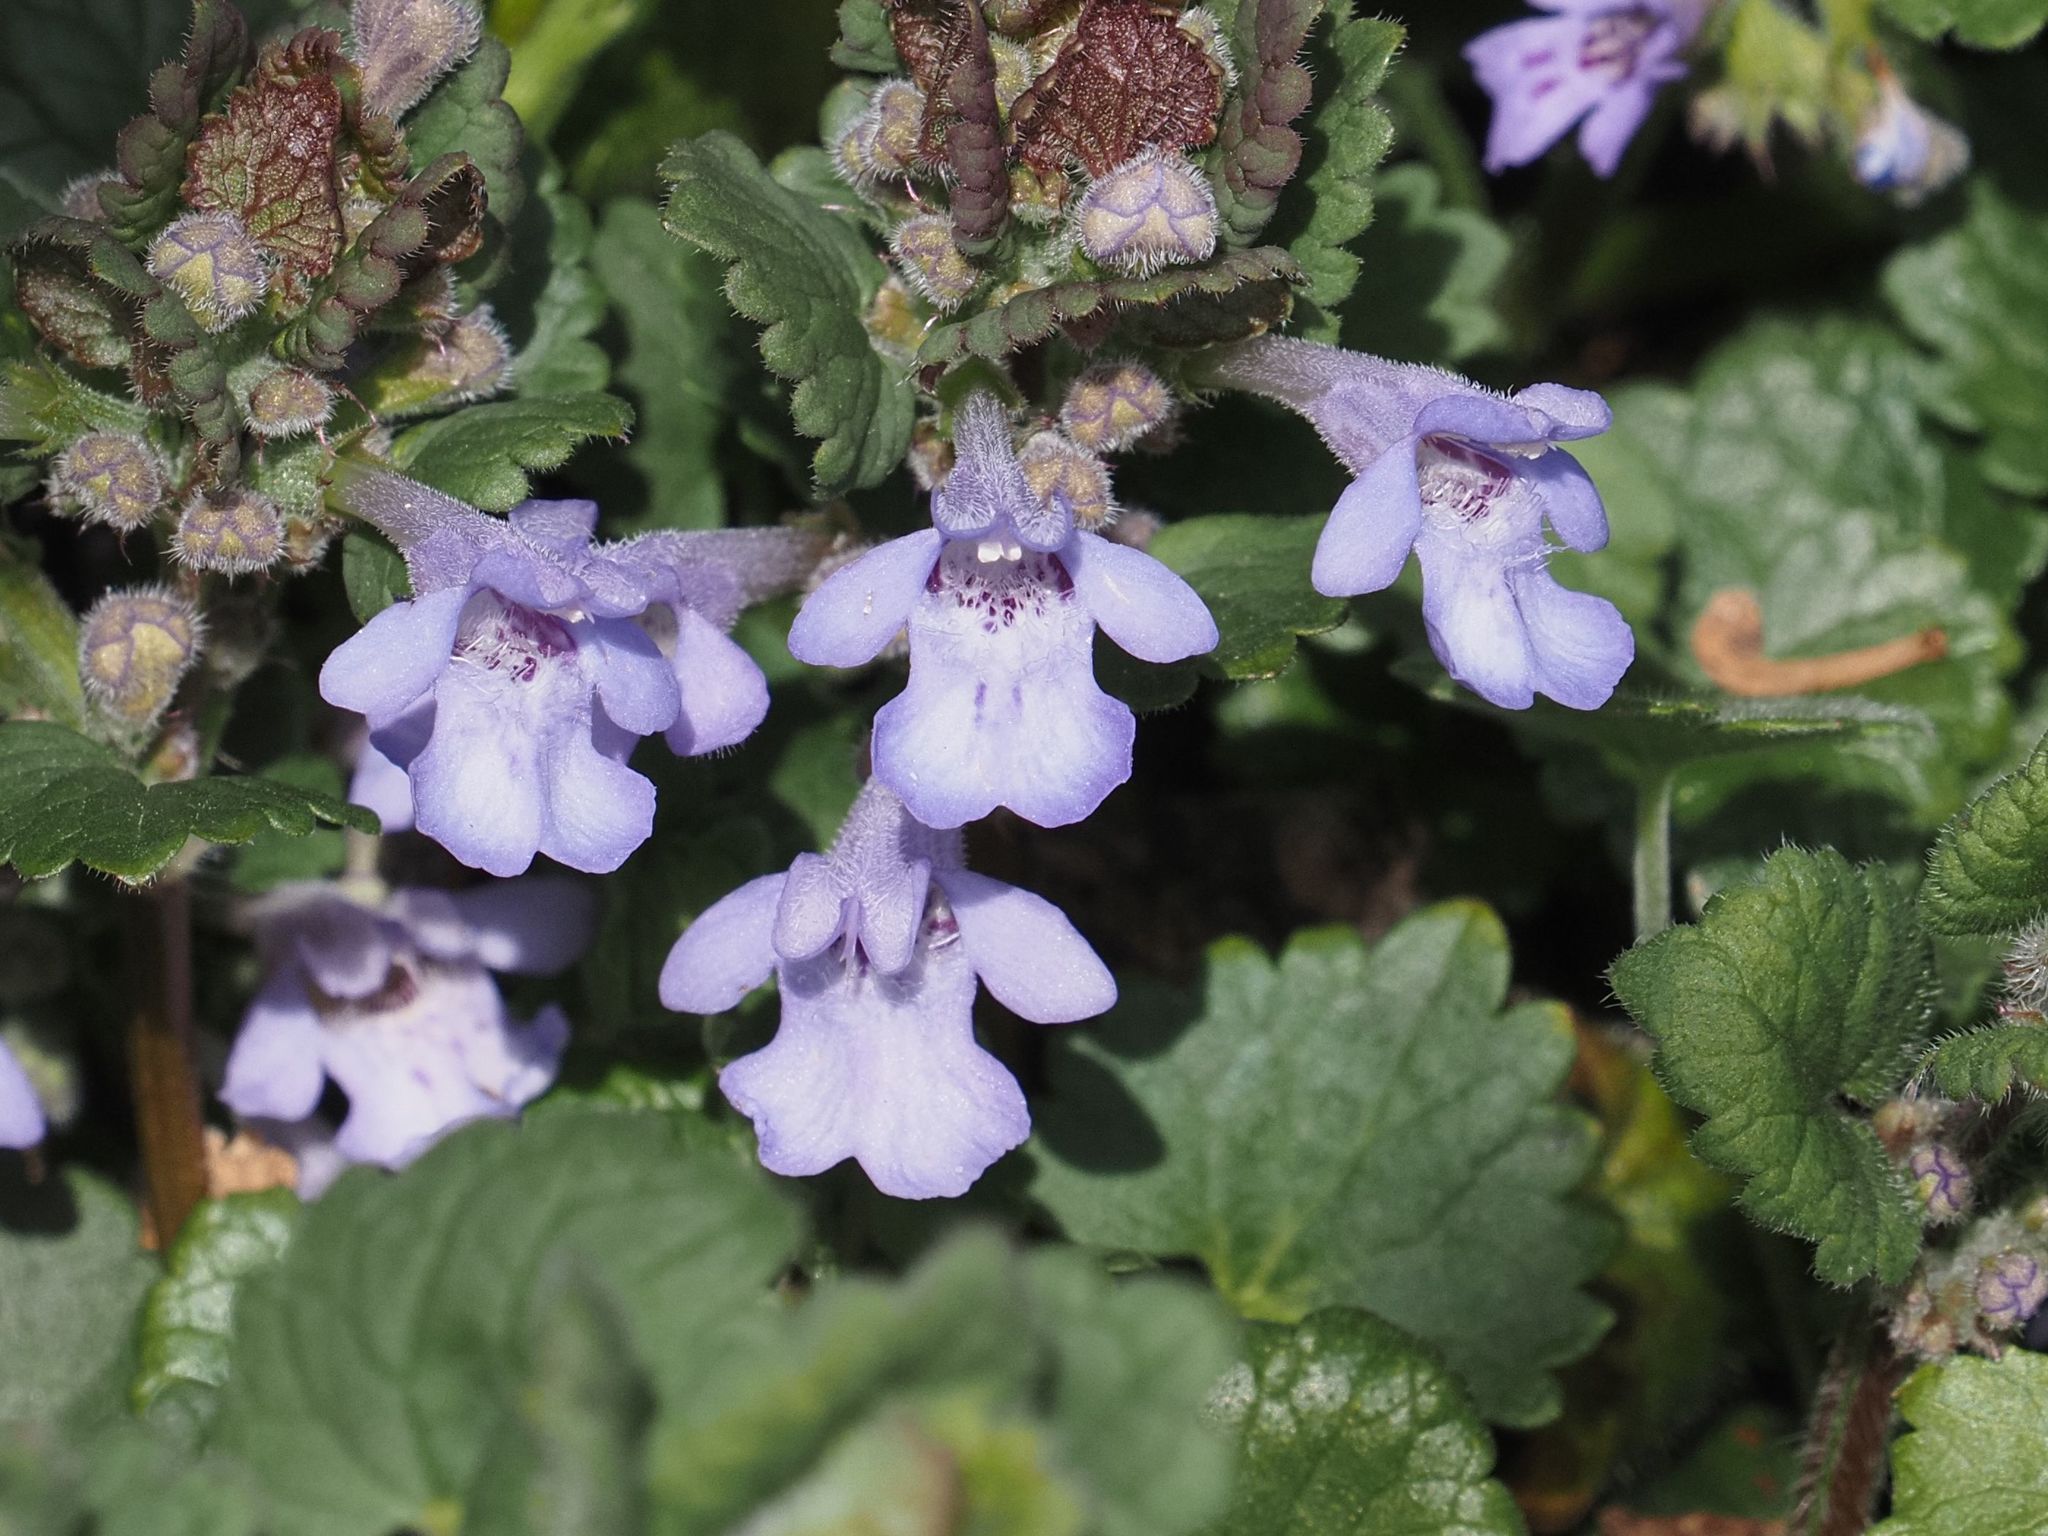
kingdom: Plantae
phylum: Tracheophyta
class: Magnoliopsida
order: Lamiales
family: Lamiaceae
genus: Glechoma
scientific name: Glechoma hederacea
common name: Ground ivy
